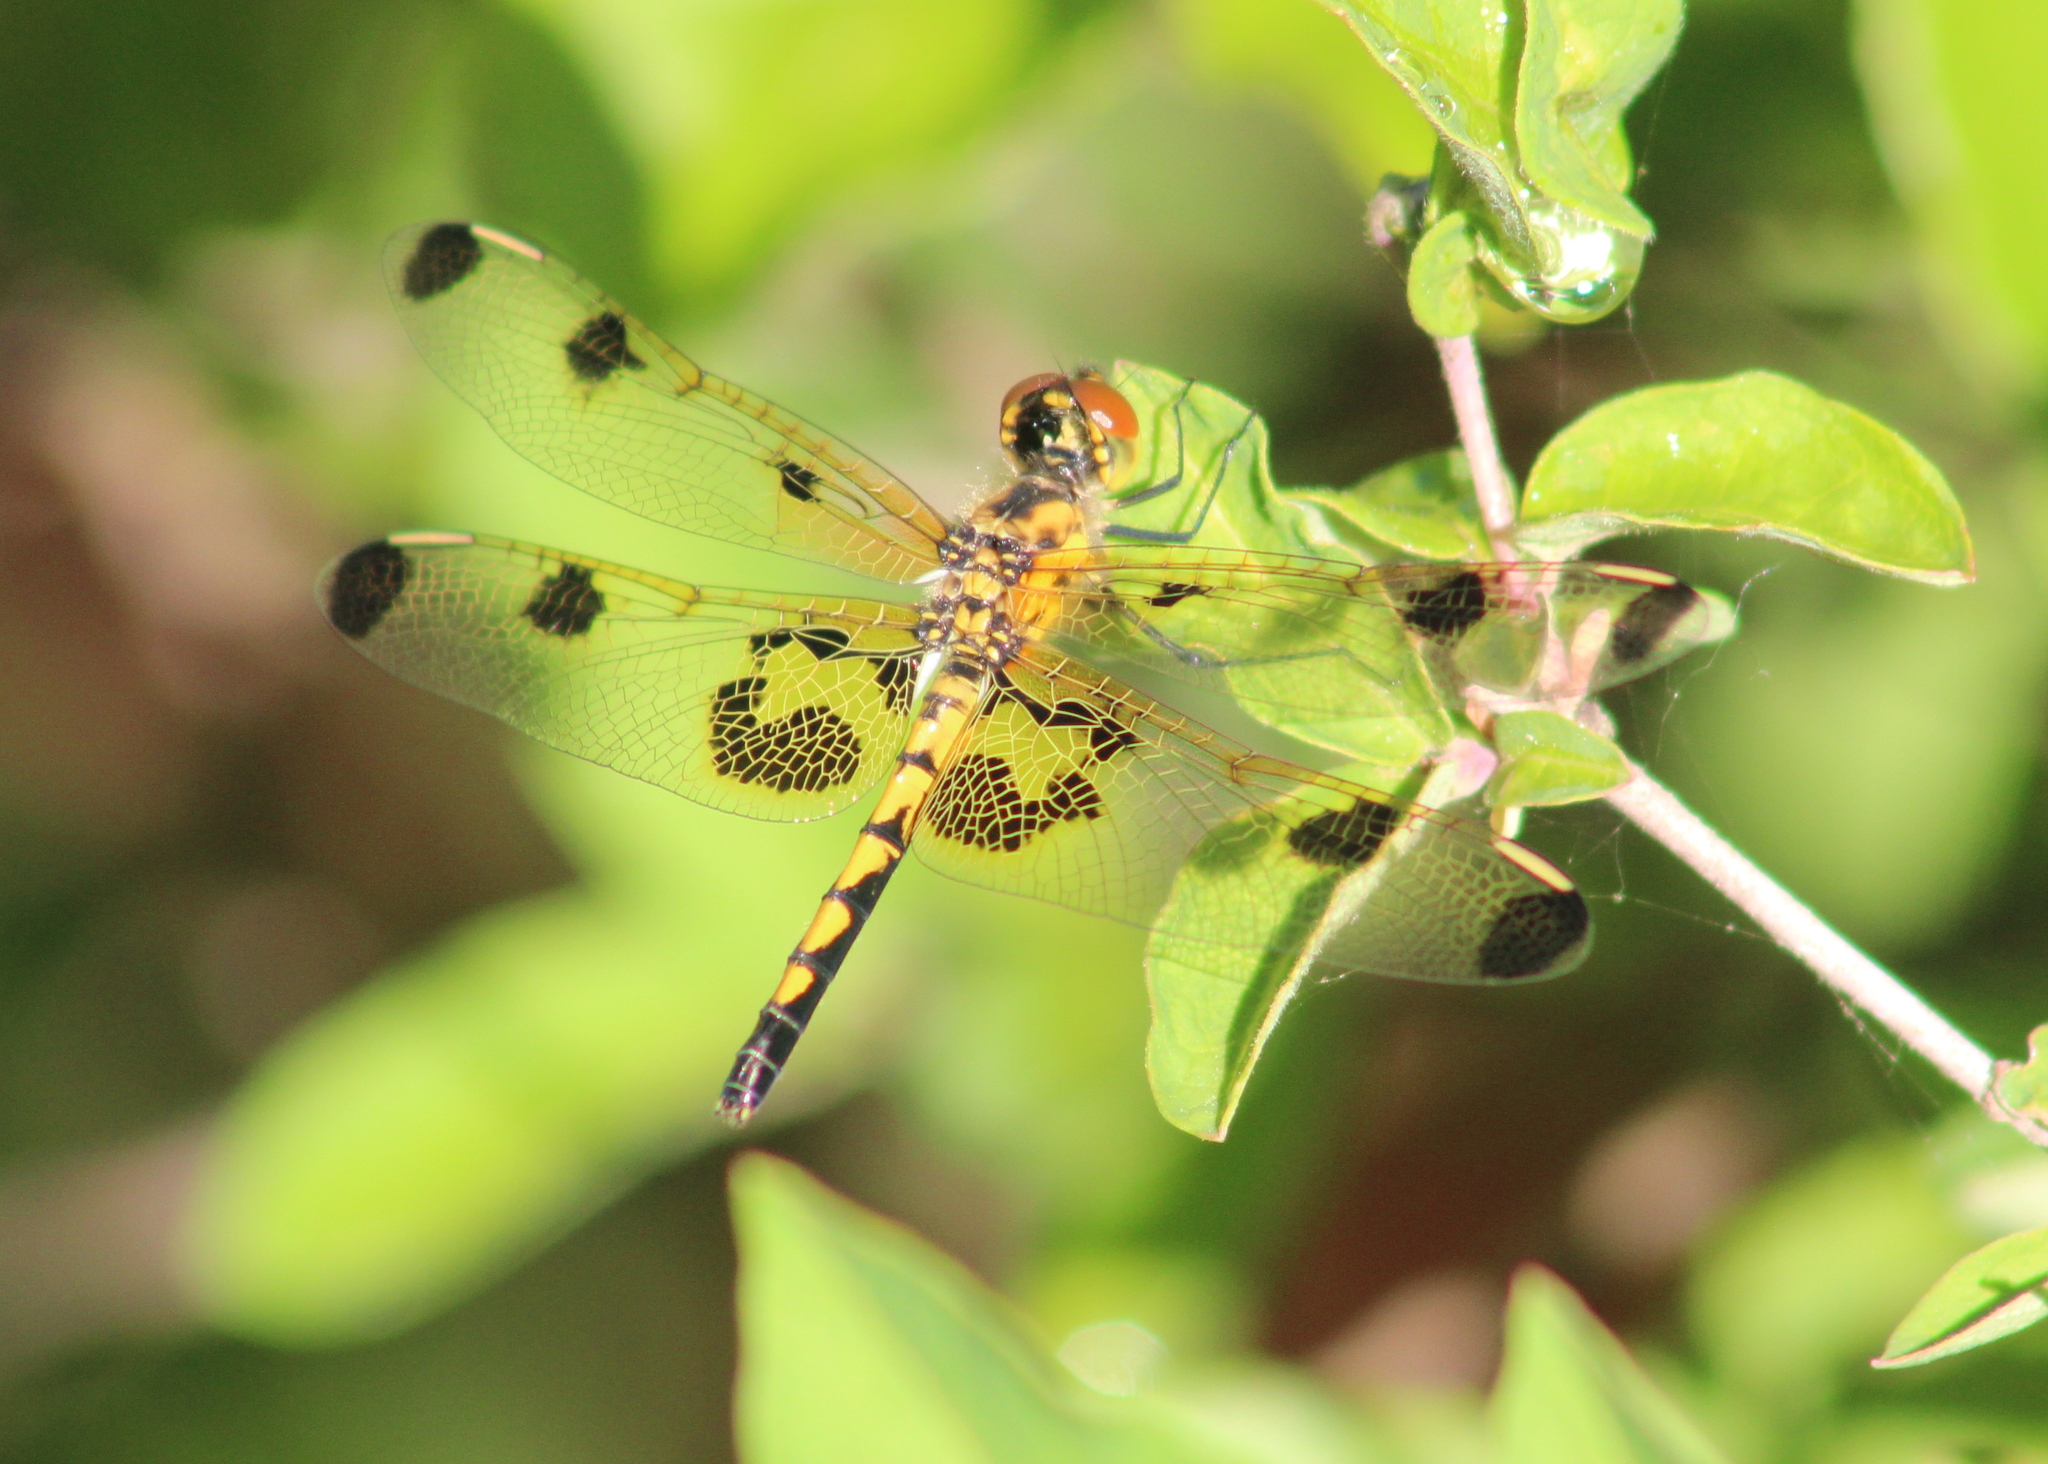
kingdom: Animalia
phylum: Arthropoda
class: Insecta
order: Odonata
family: Libellulidae
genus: Celithemis
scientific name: Celithemis elisa
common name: Calico pennant
